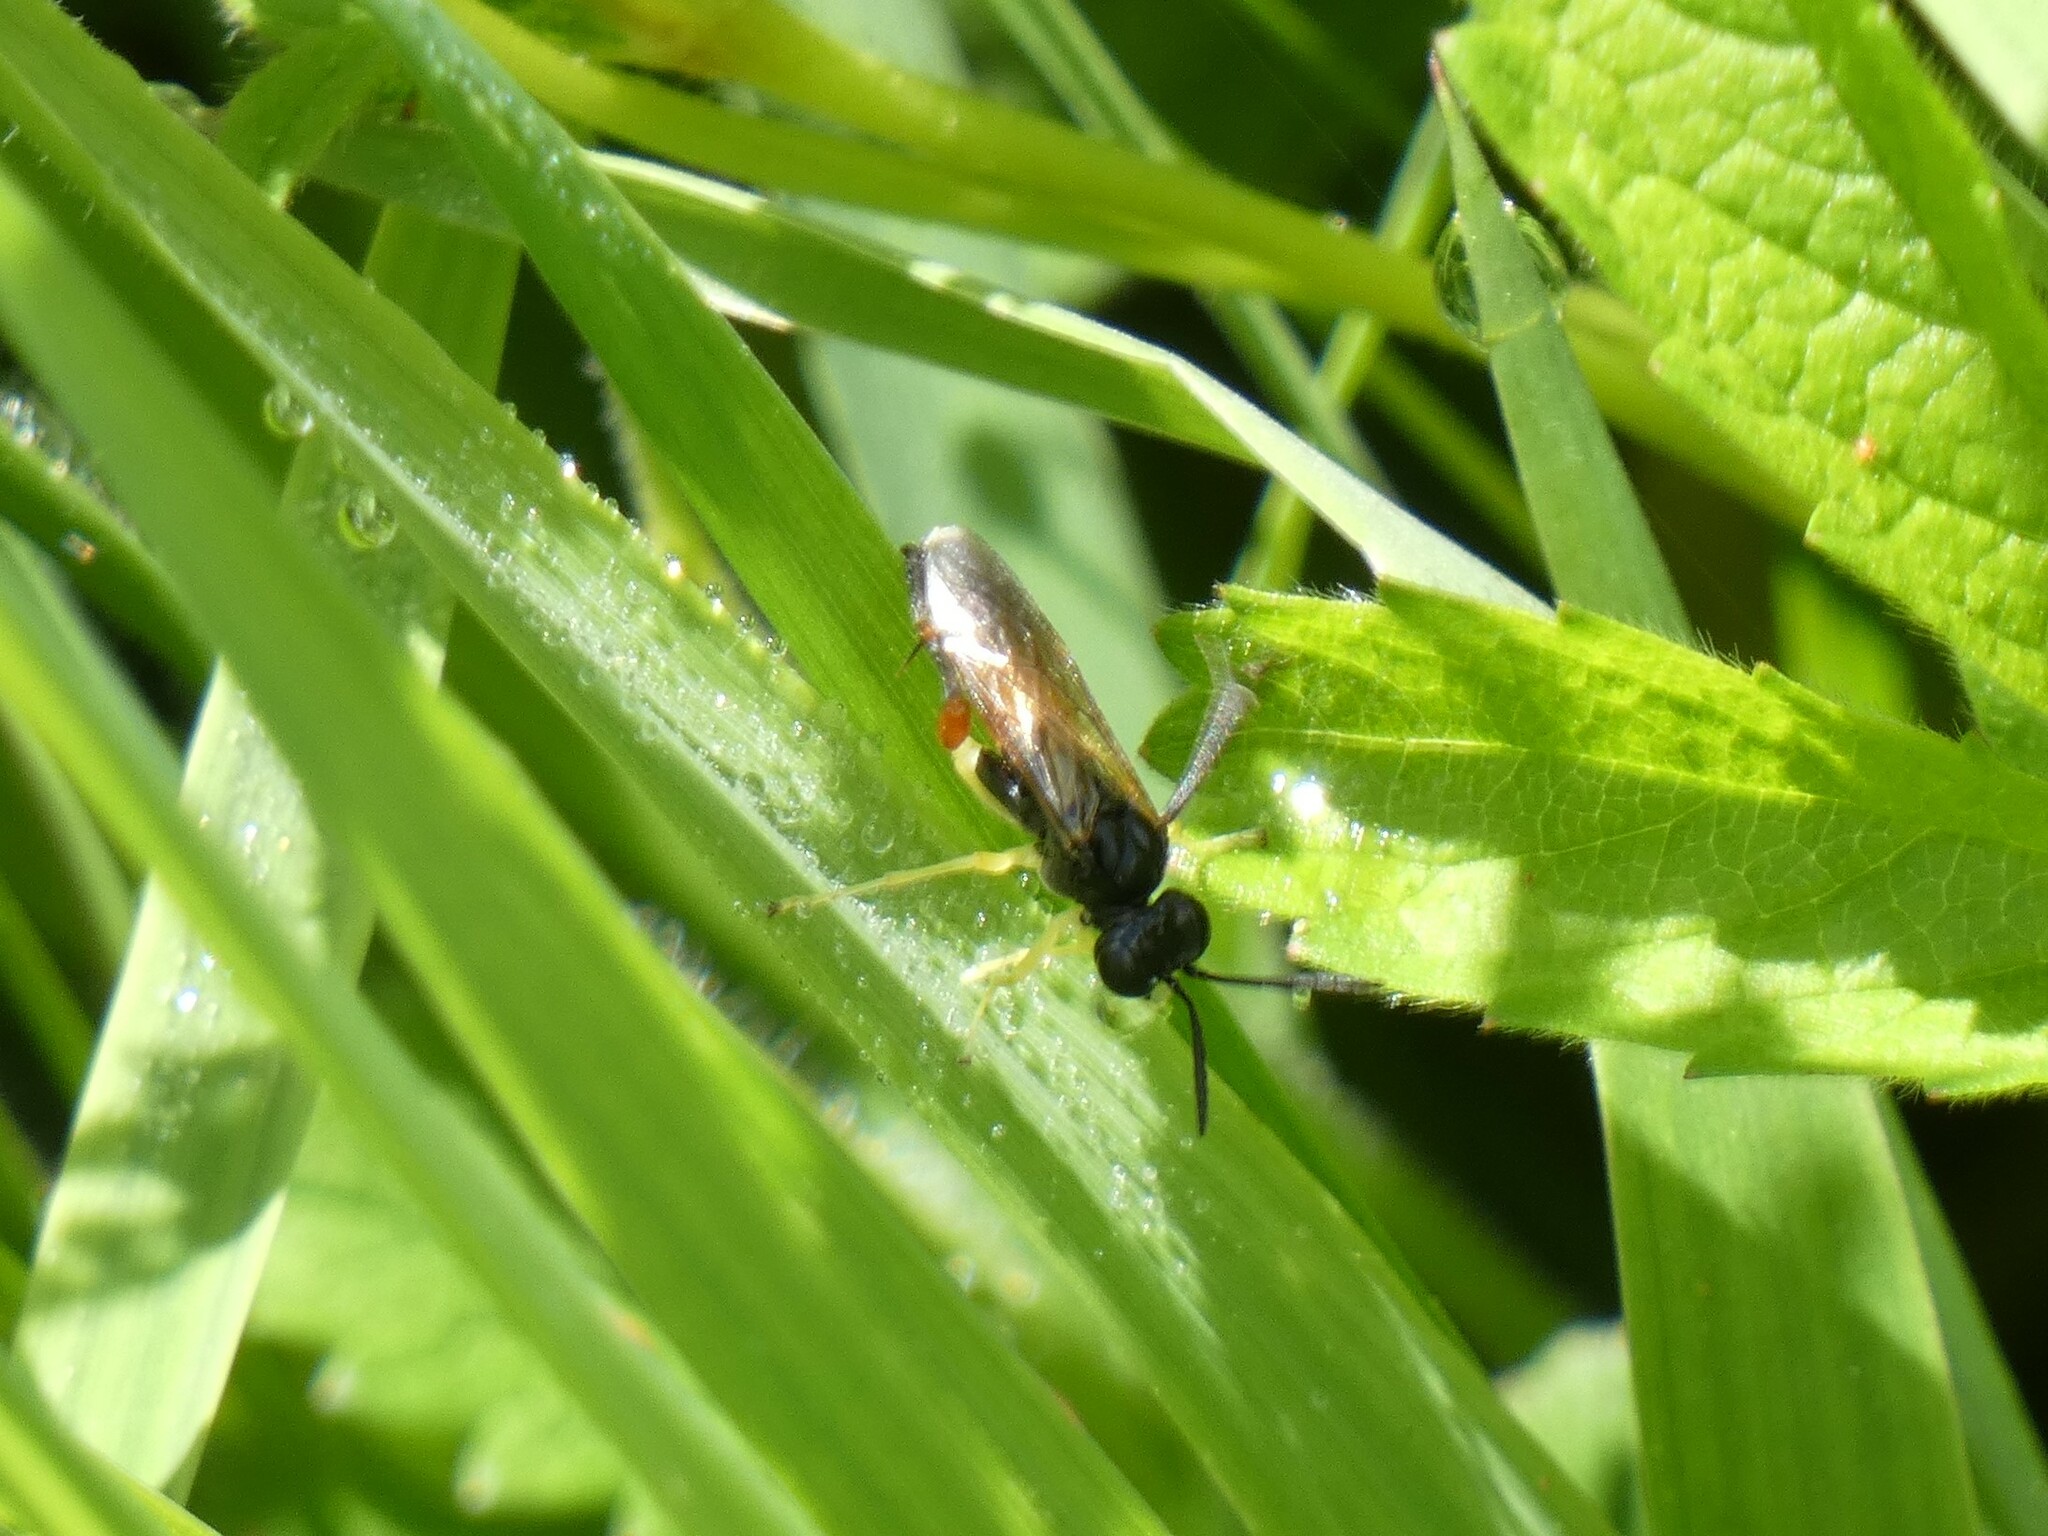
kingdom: Animalia
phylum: Arthropoda
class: Insecta
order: Hymenoptera
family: Tenthredinidae
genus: Macrophya
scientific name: Macrophya rufipes
